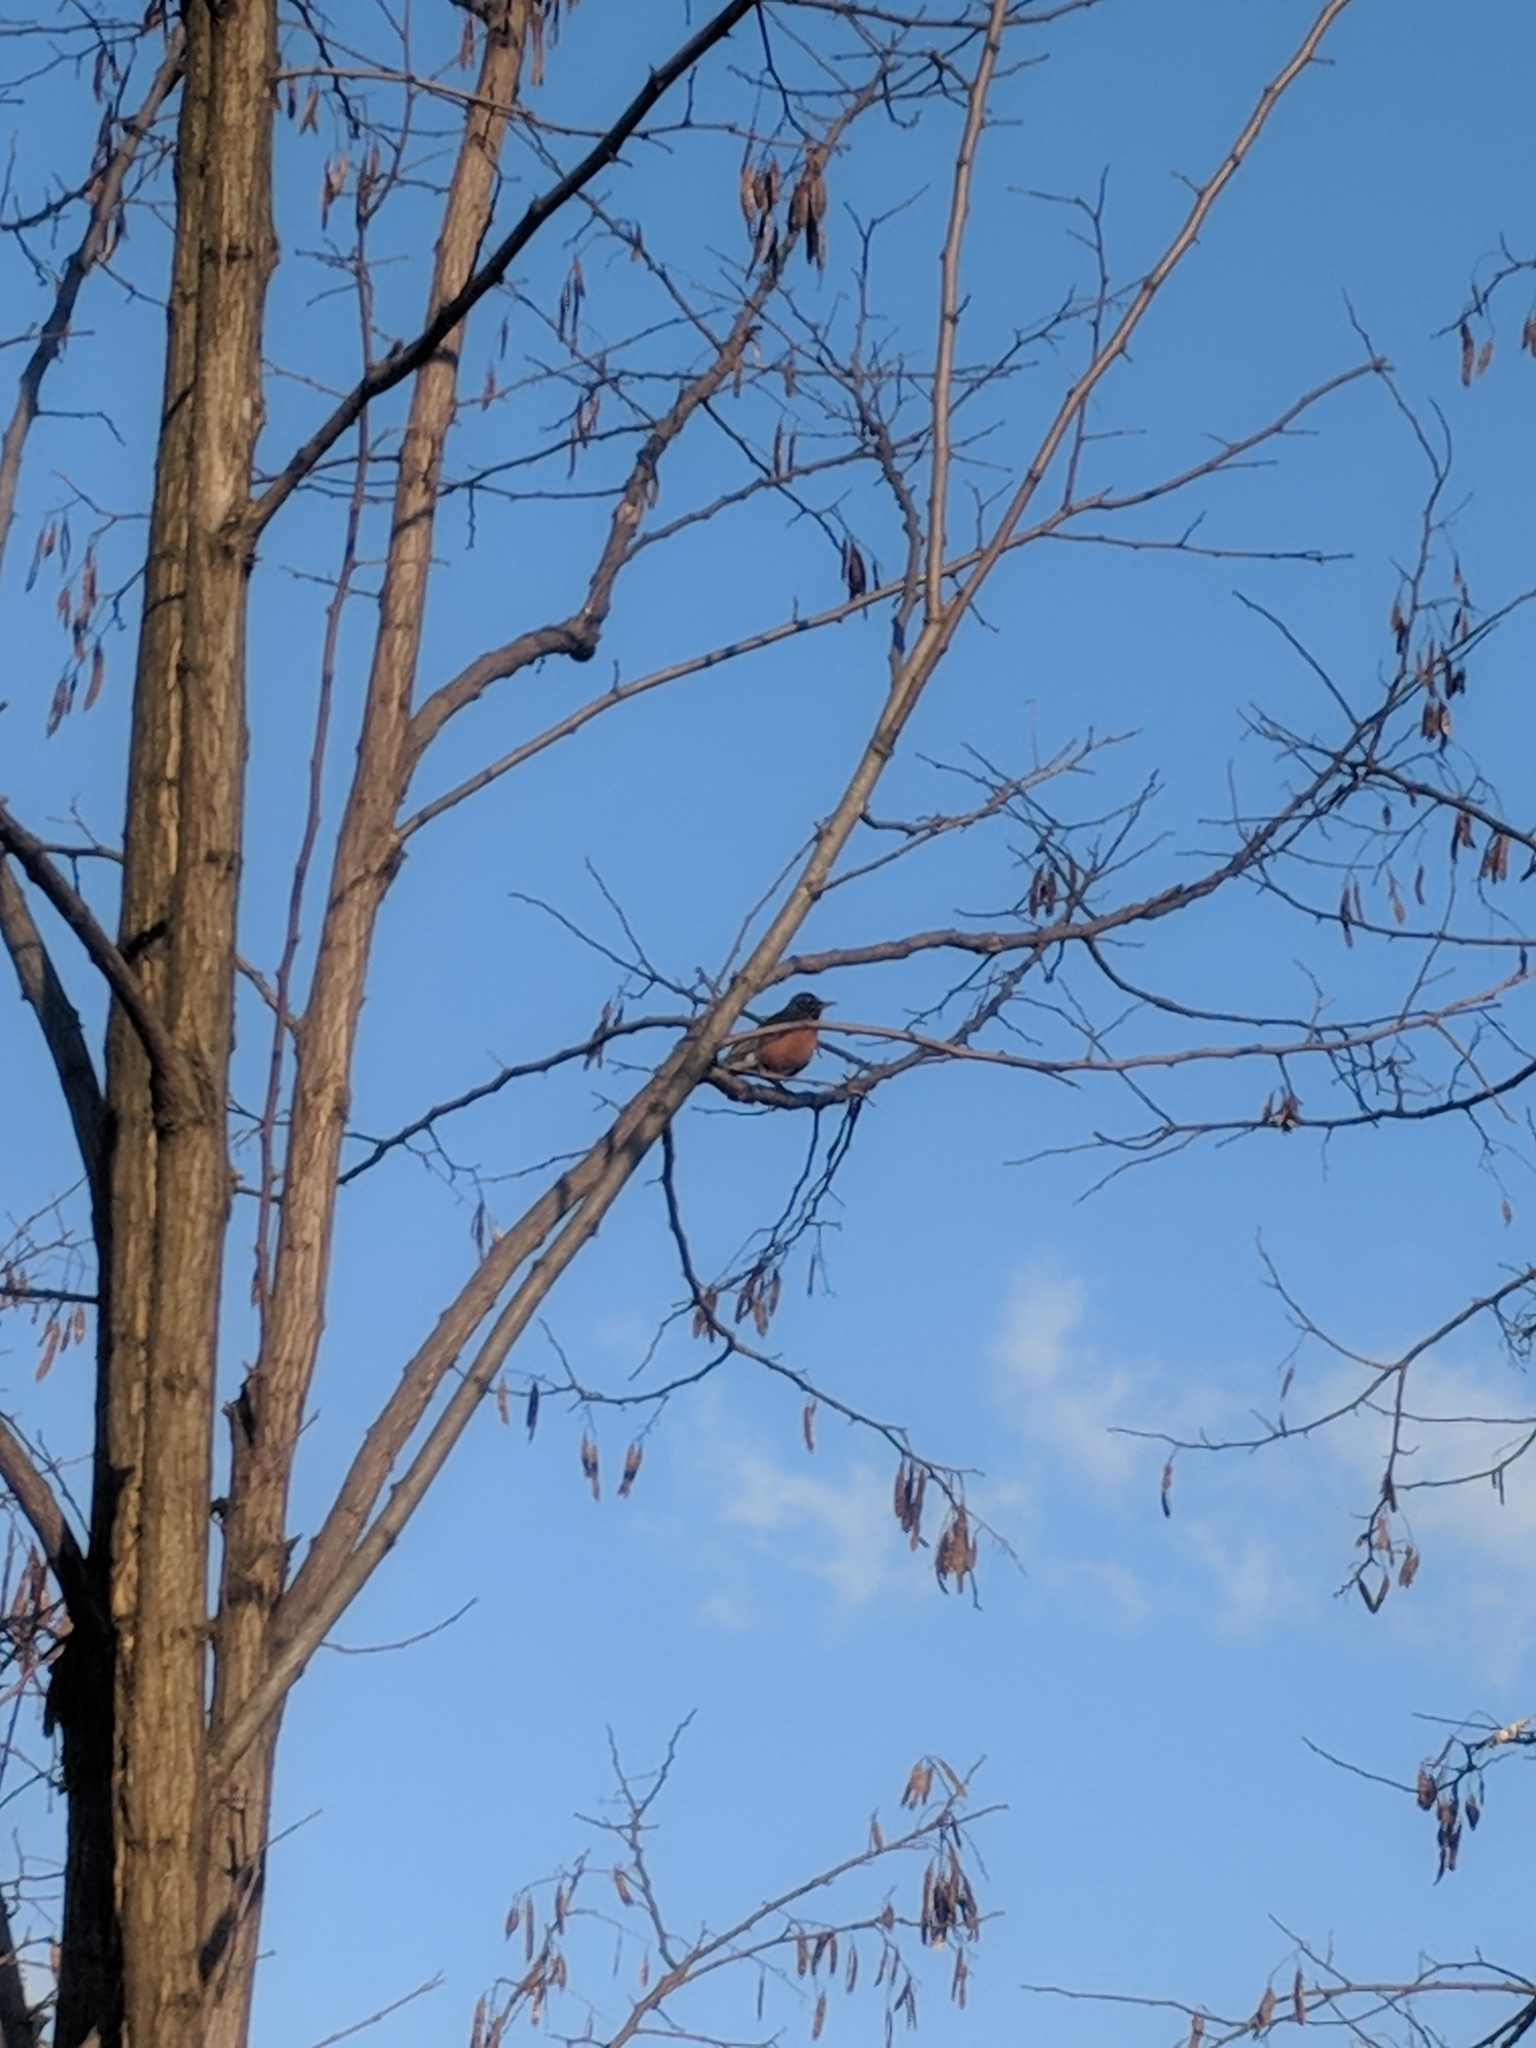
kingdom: Animalia
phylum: Chordata
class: Aves
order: Passeriformes
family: Turdidae
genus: Turdus
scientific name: Turdus migratorius
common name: American robin
